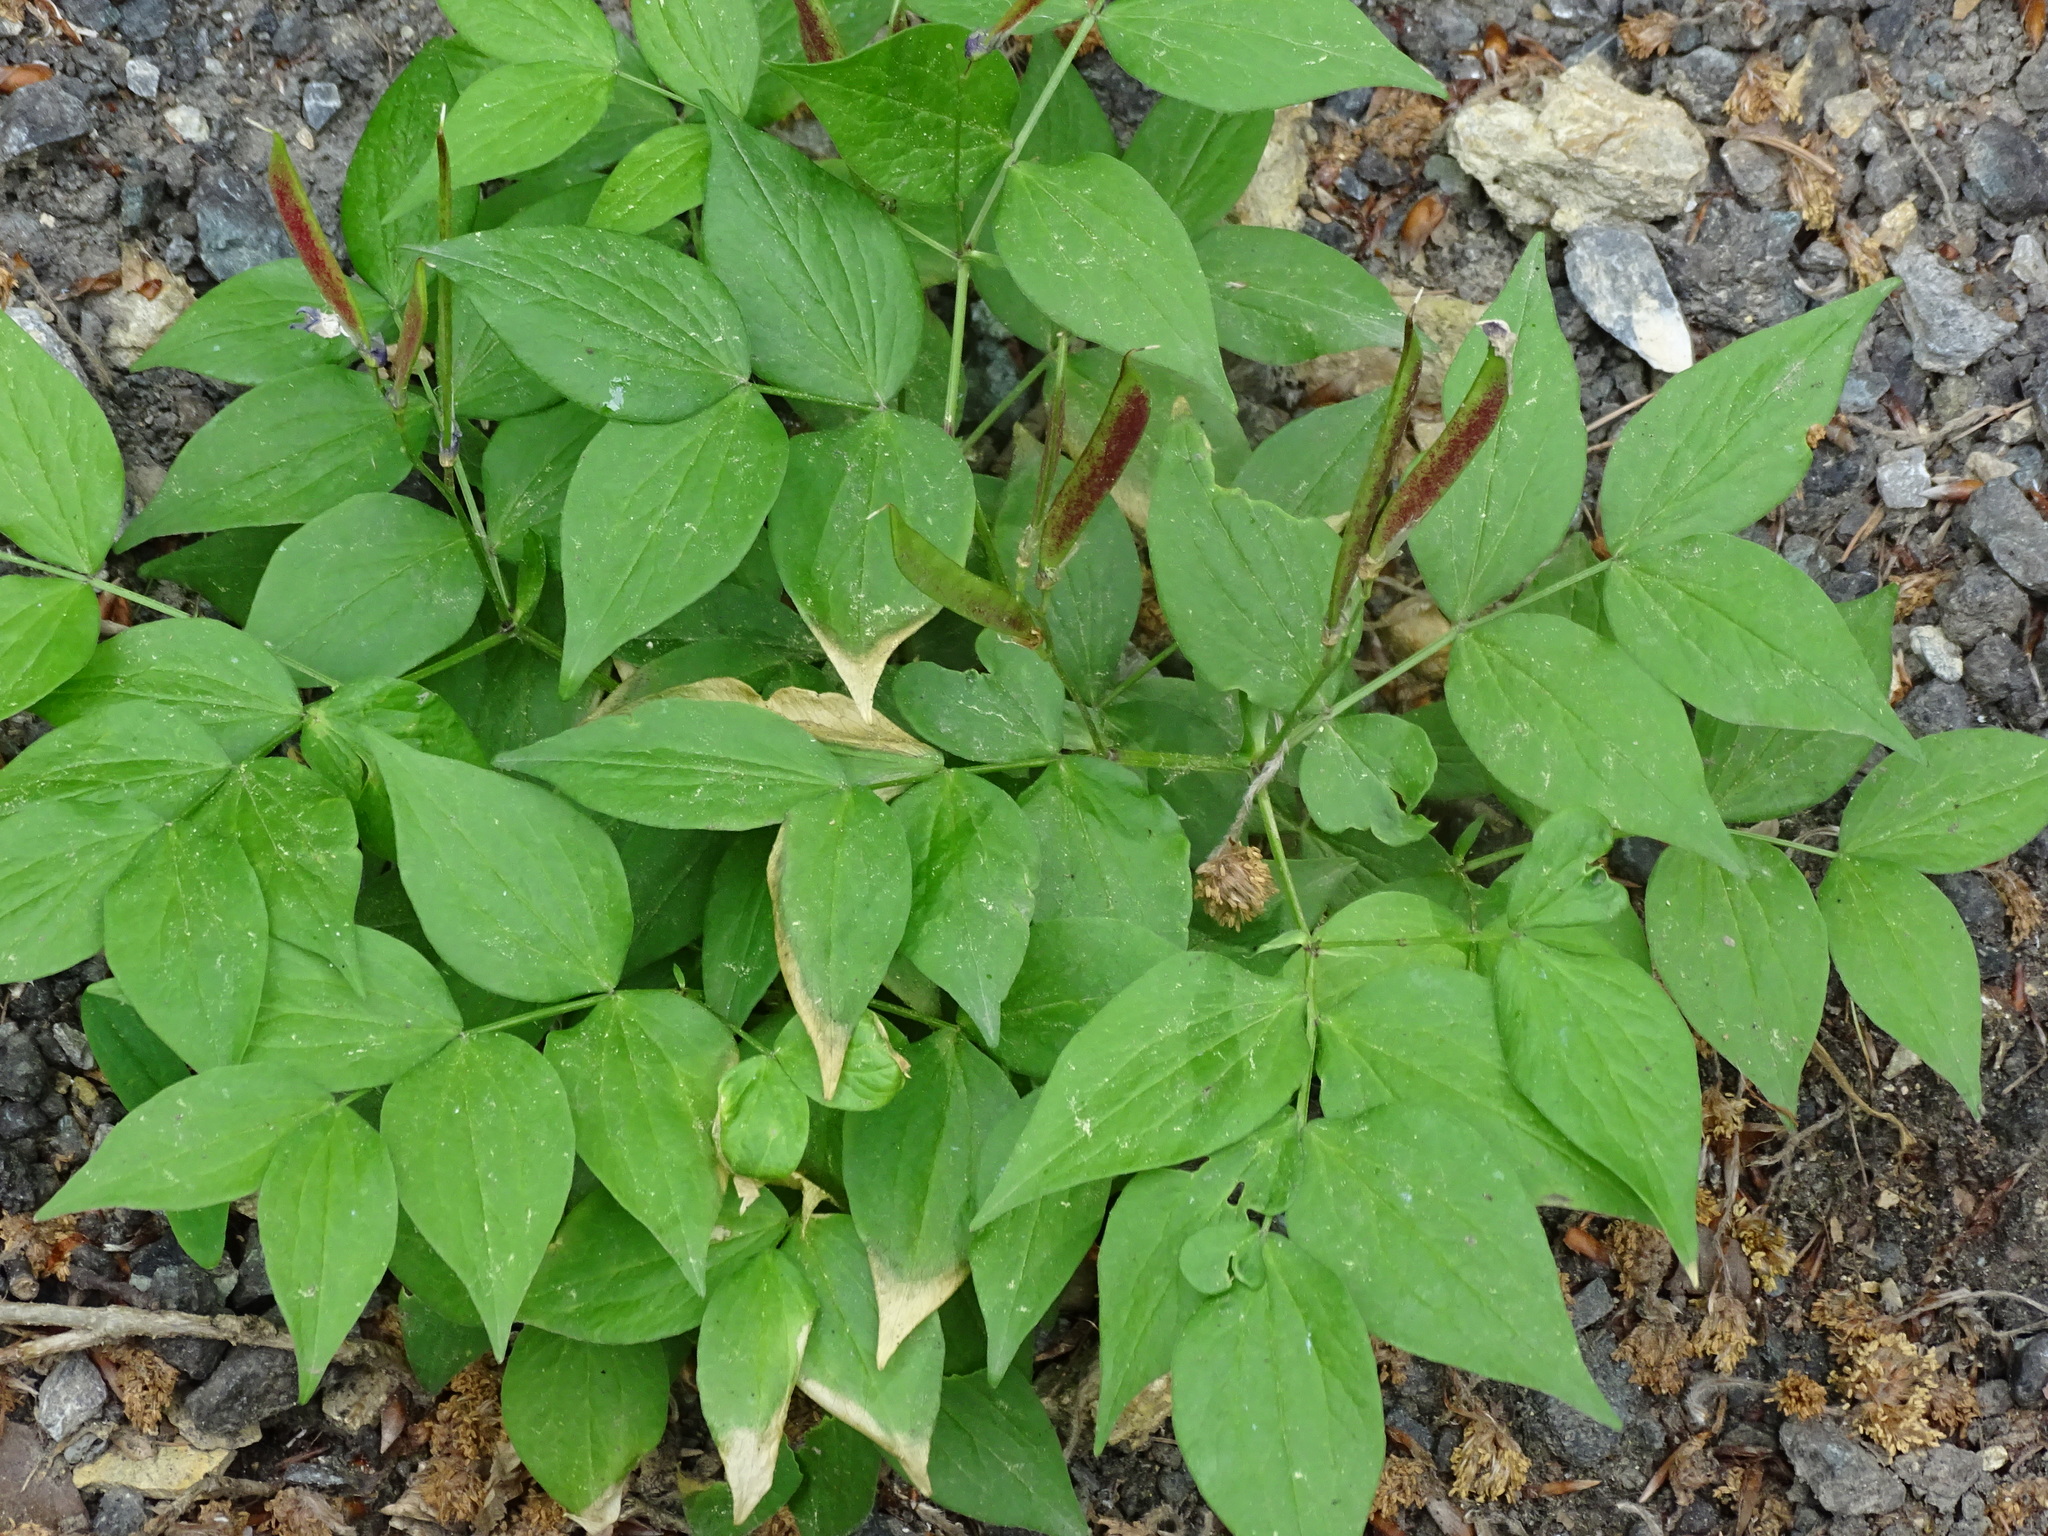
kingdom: Plantae
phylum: Tracheophyta
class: Magnoliopsida
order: Fabales
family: Fabaceae
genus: Lathyrus
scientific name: Lathyrus vernus
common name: Spring pea
